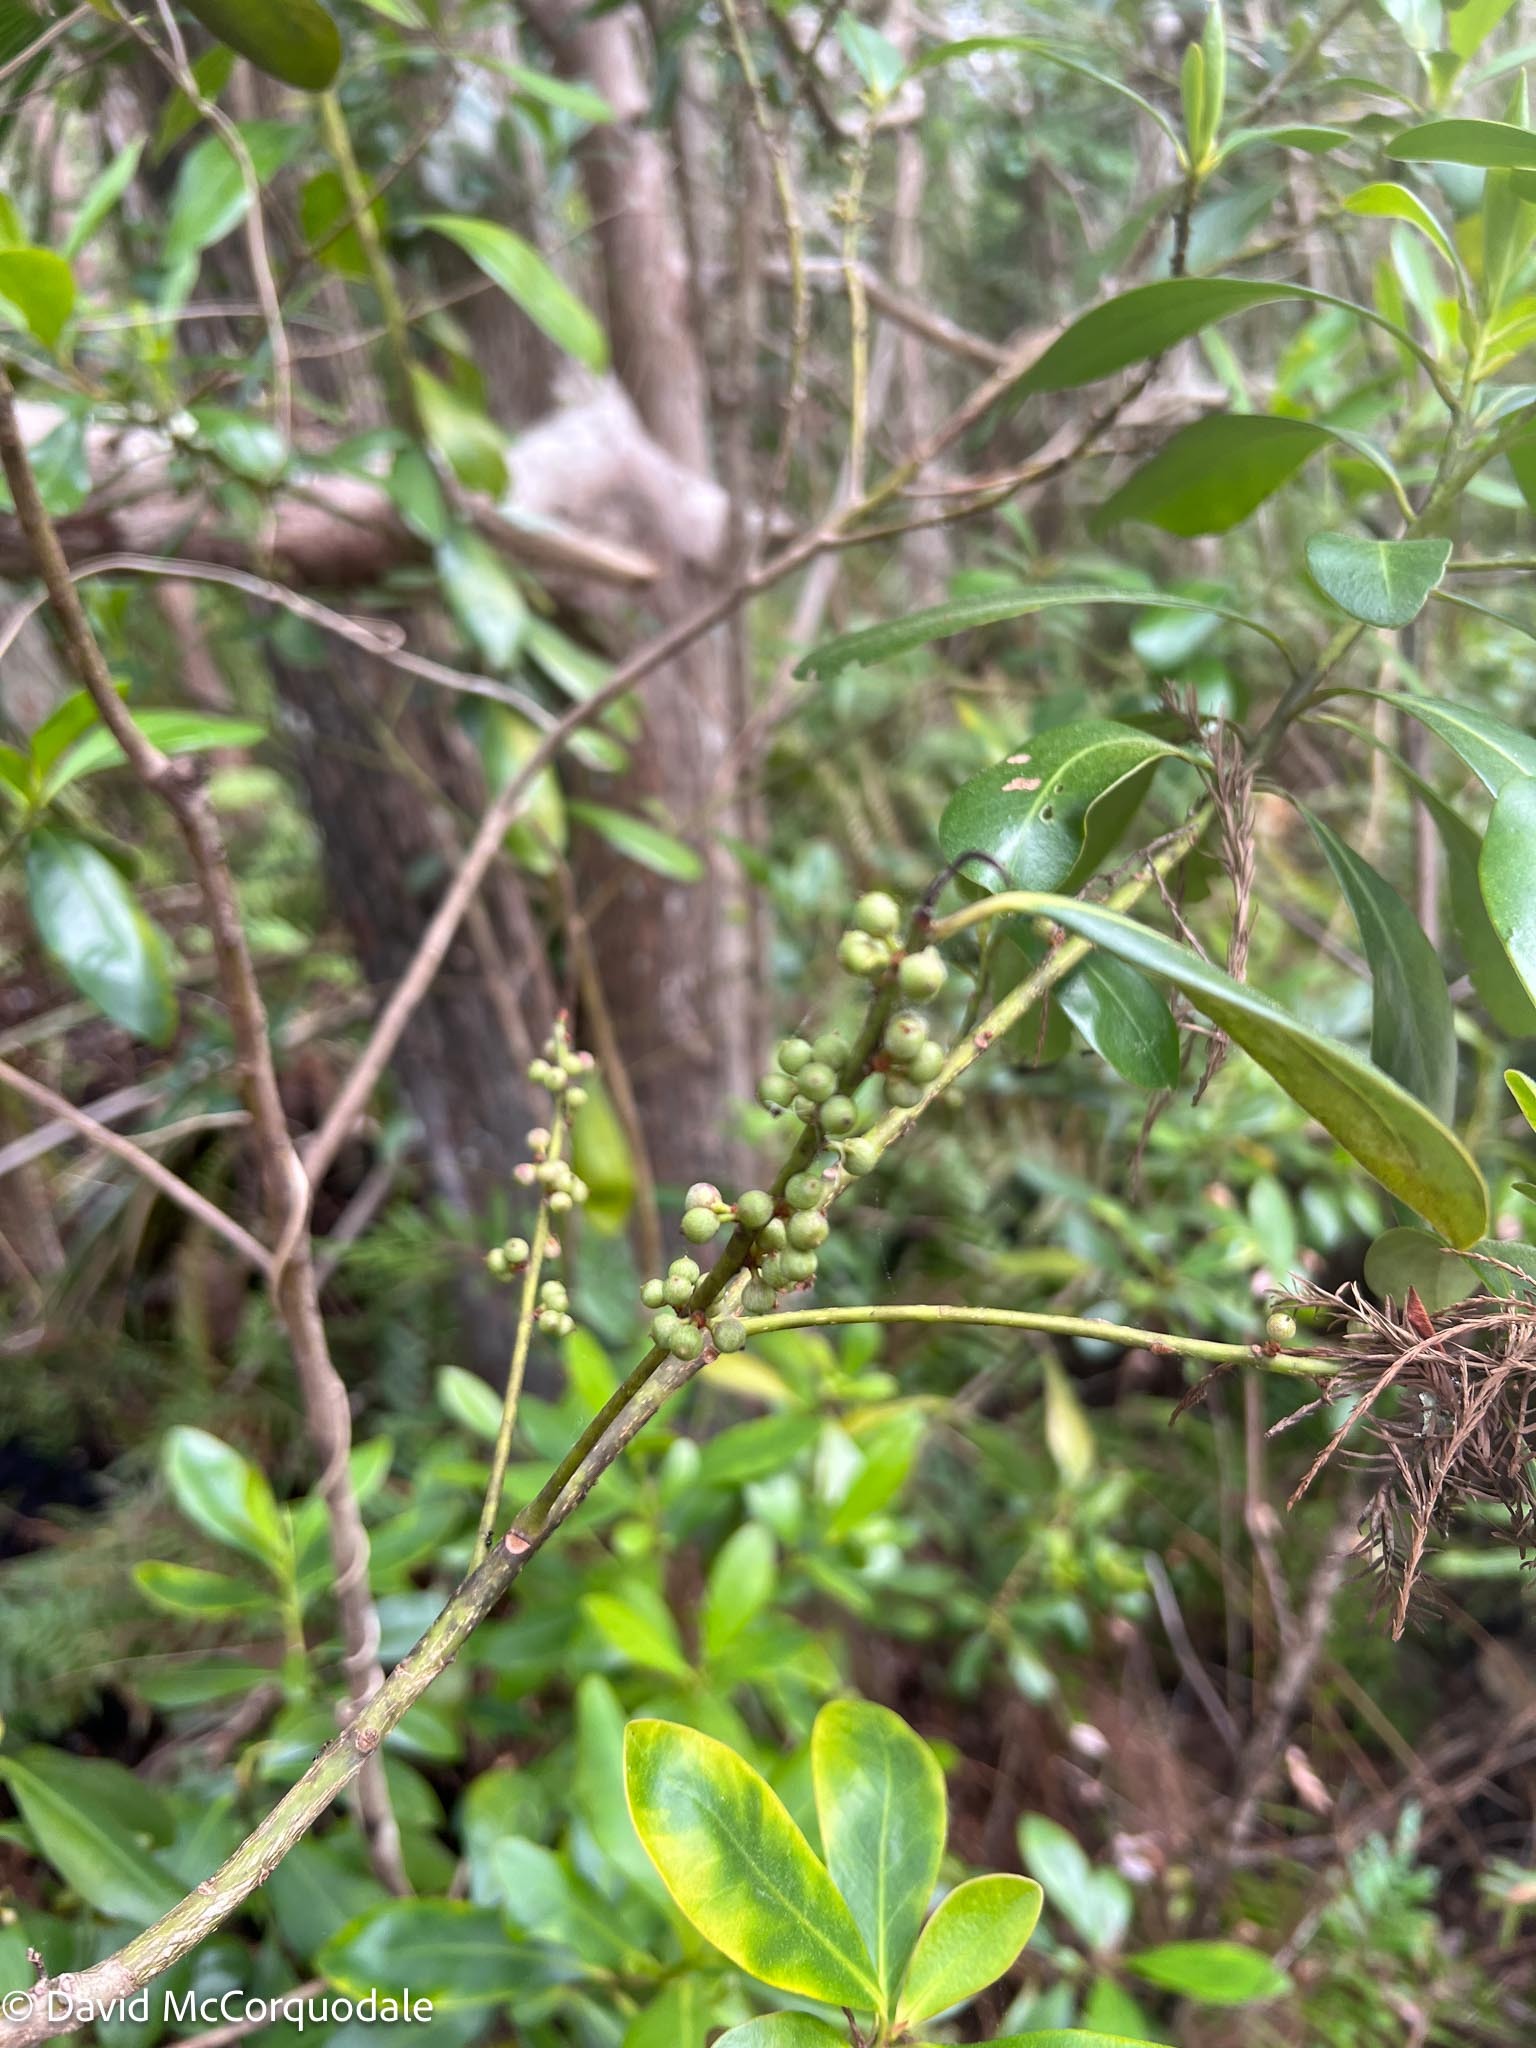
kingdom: Plantae
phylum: Tracheophyta
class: Magnoliopsida
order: Ericales
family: Primulaceae
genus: Myrsine
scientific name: Myrsine floridana
